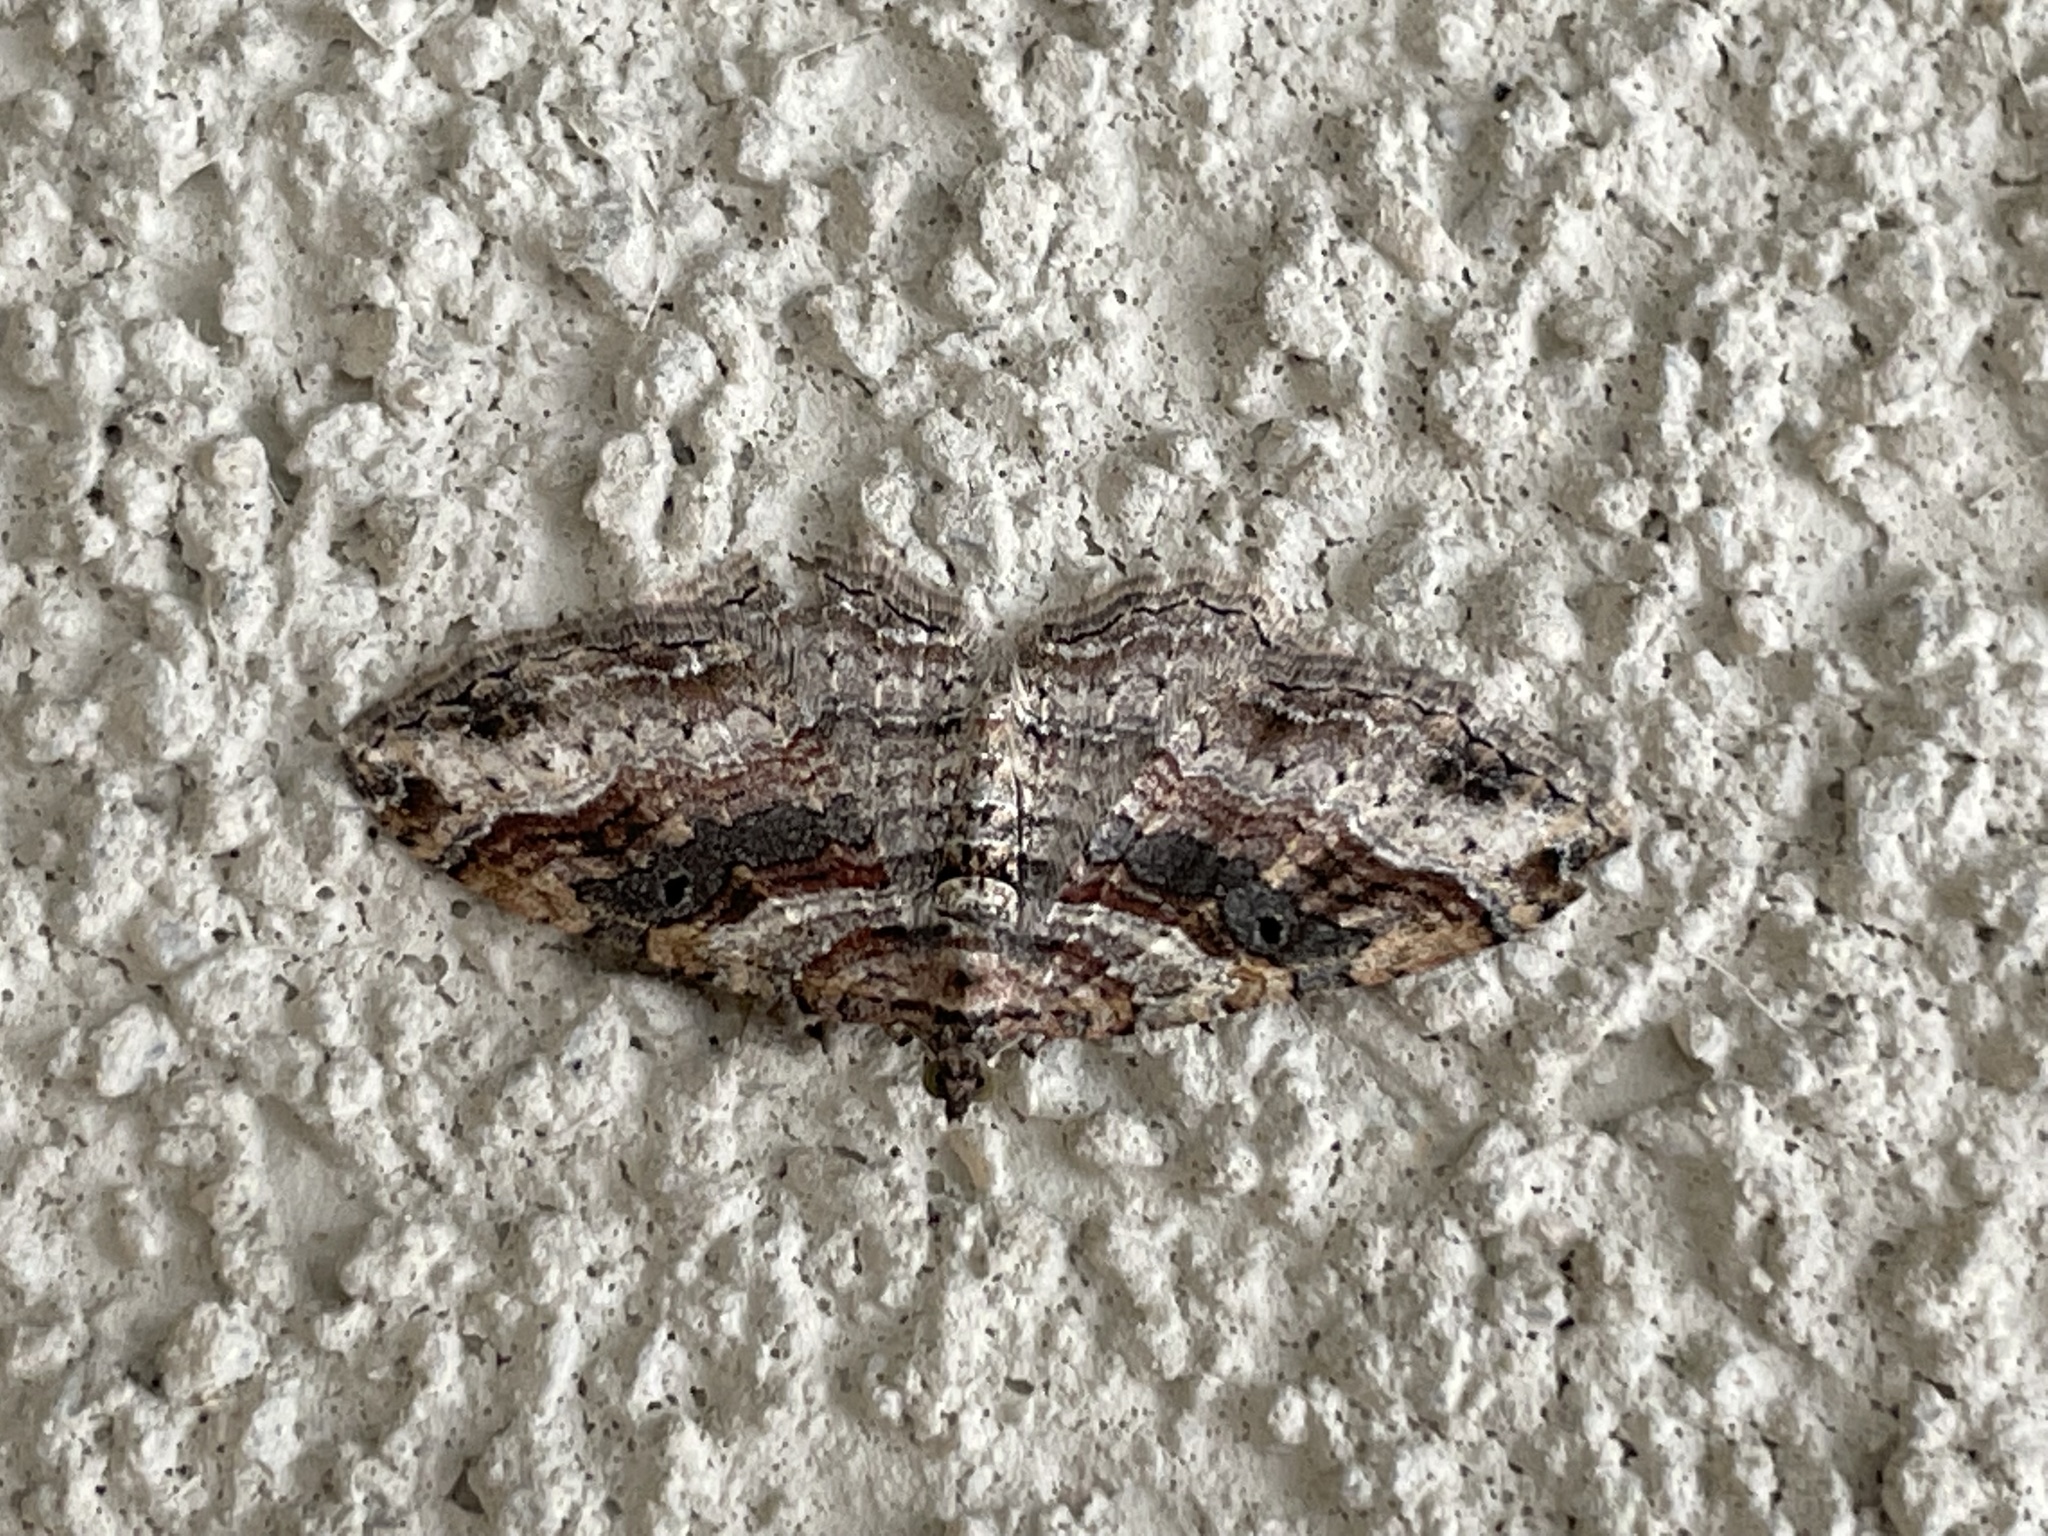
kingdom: Animalia
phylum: Arthropoda
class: Insecta
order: Lepidoptera
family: Geometridae
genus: Costaconvexa
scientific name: Costaconvexa centrostrigaria
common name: Bent-line carpet
